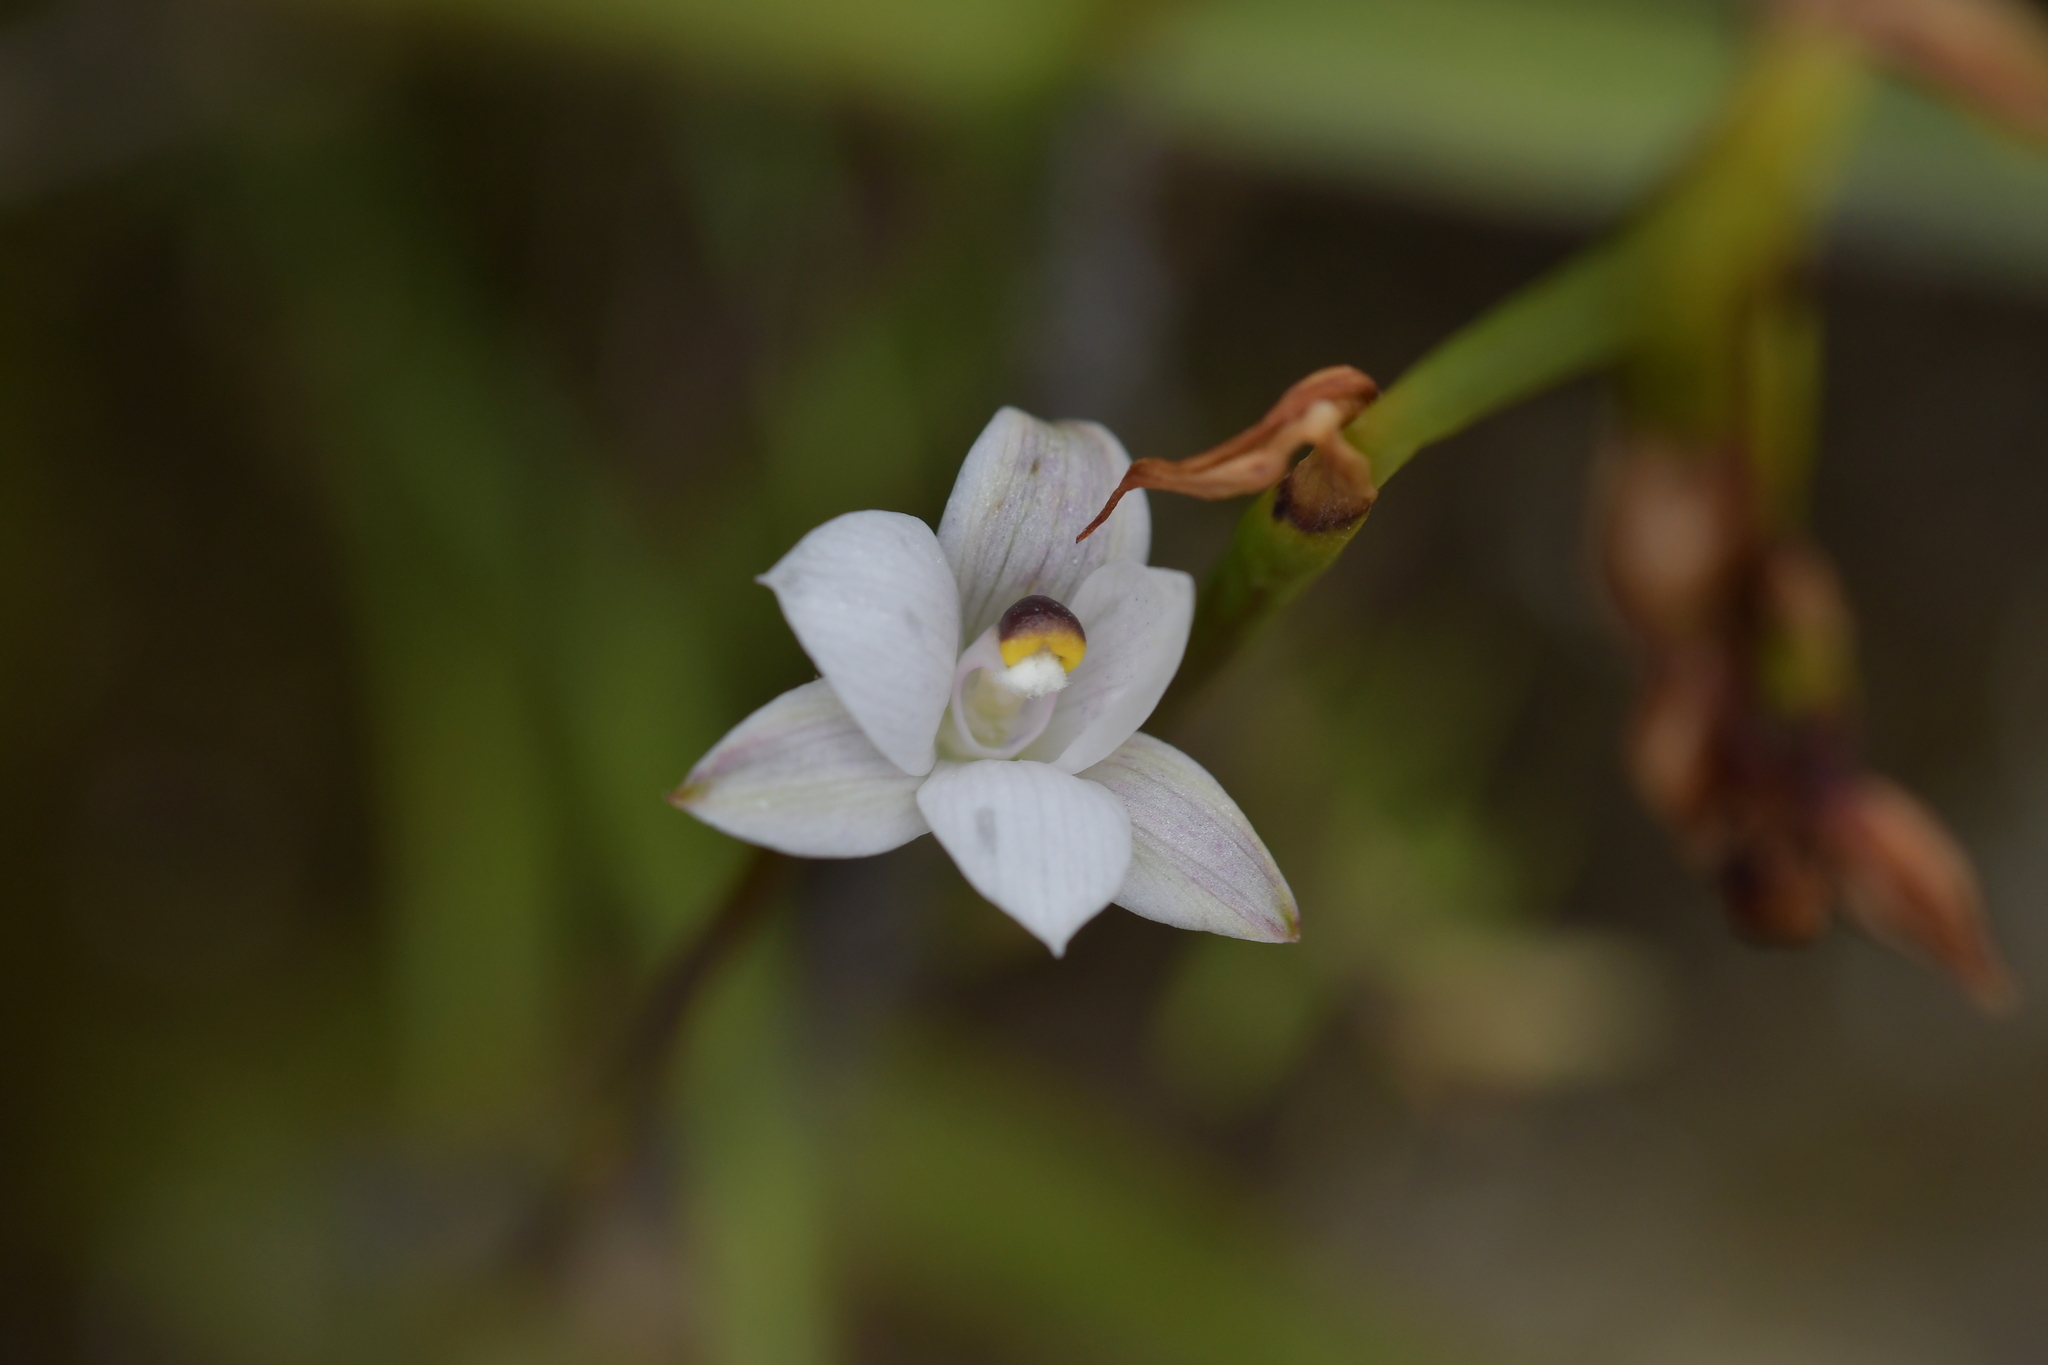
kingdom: Plantae
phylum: Tracheophyta
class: Liliopsida
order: Asparagales
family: Orchidaceae
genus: Thelymitra
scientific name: Thelymitra longifolia
